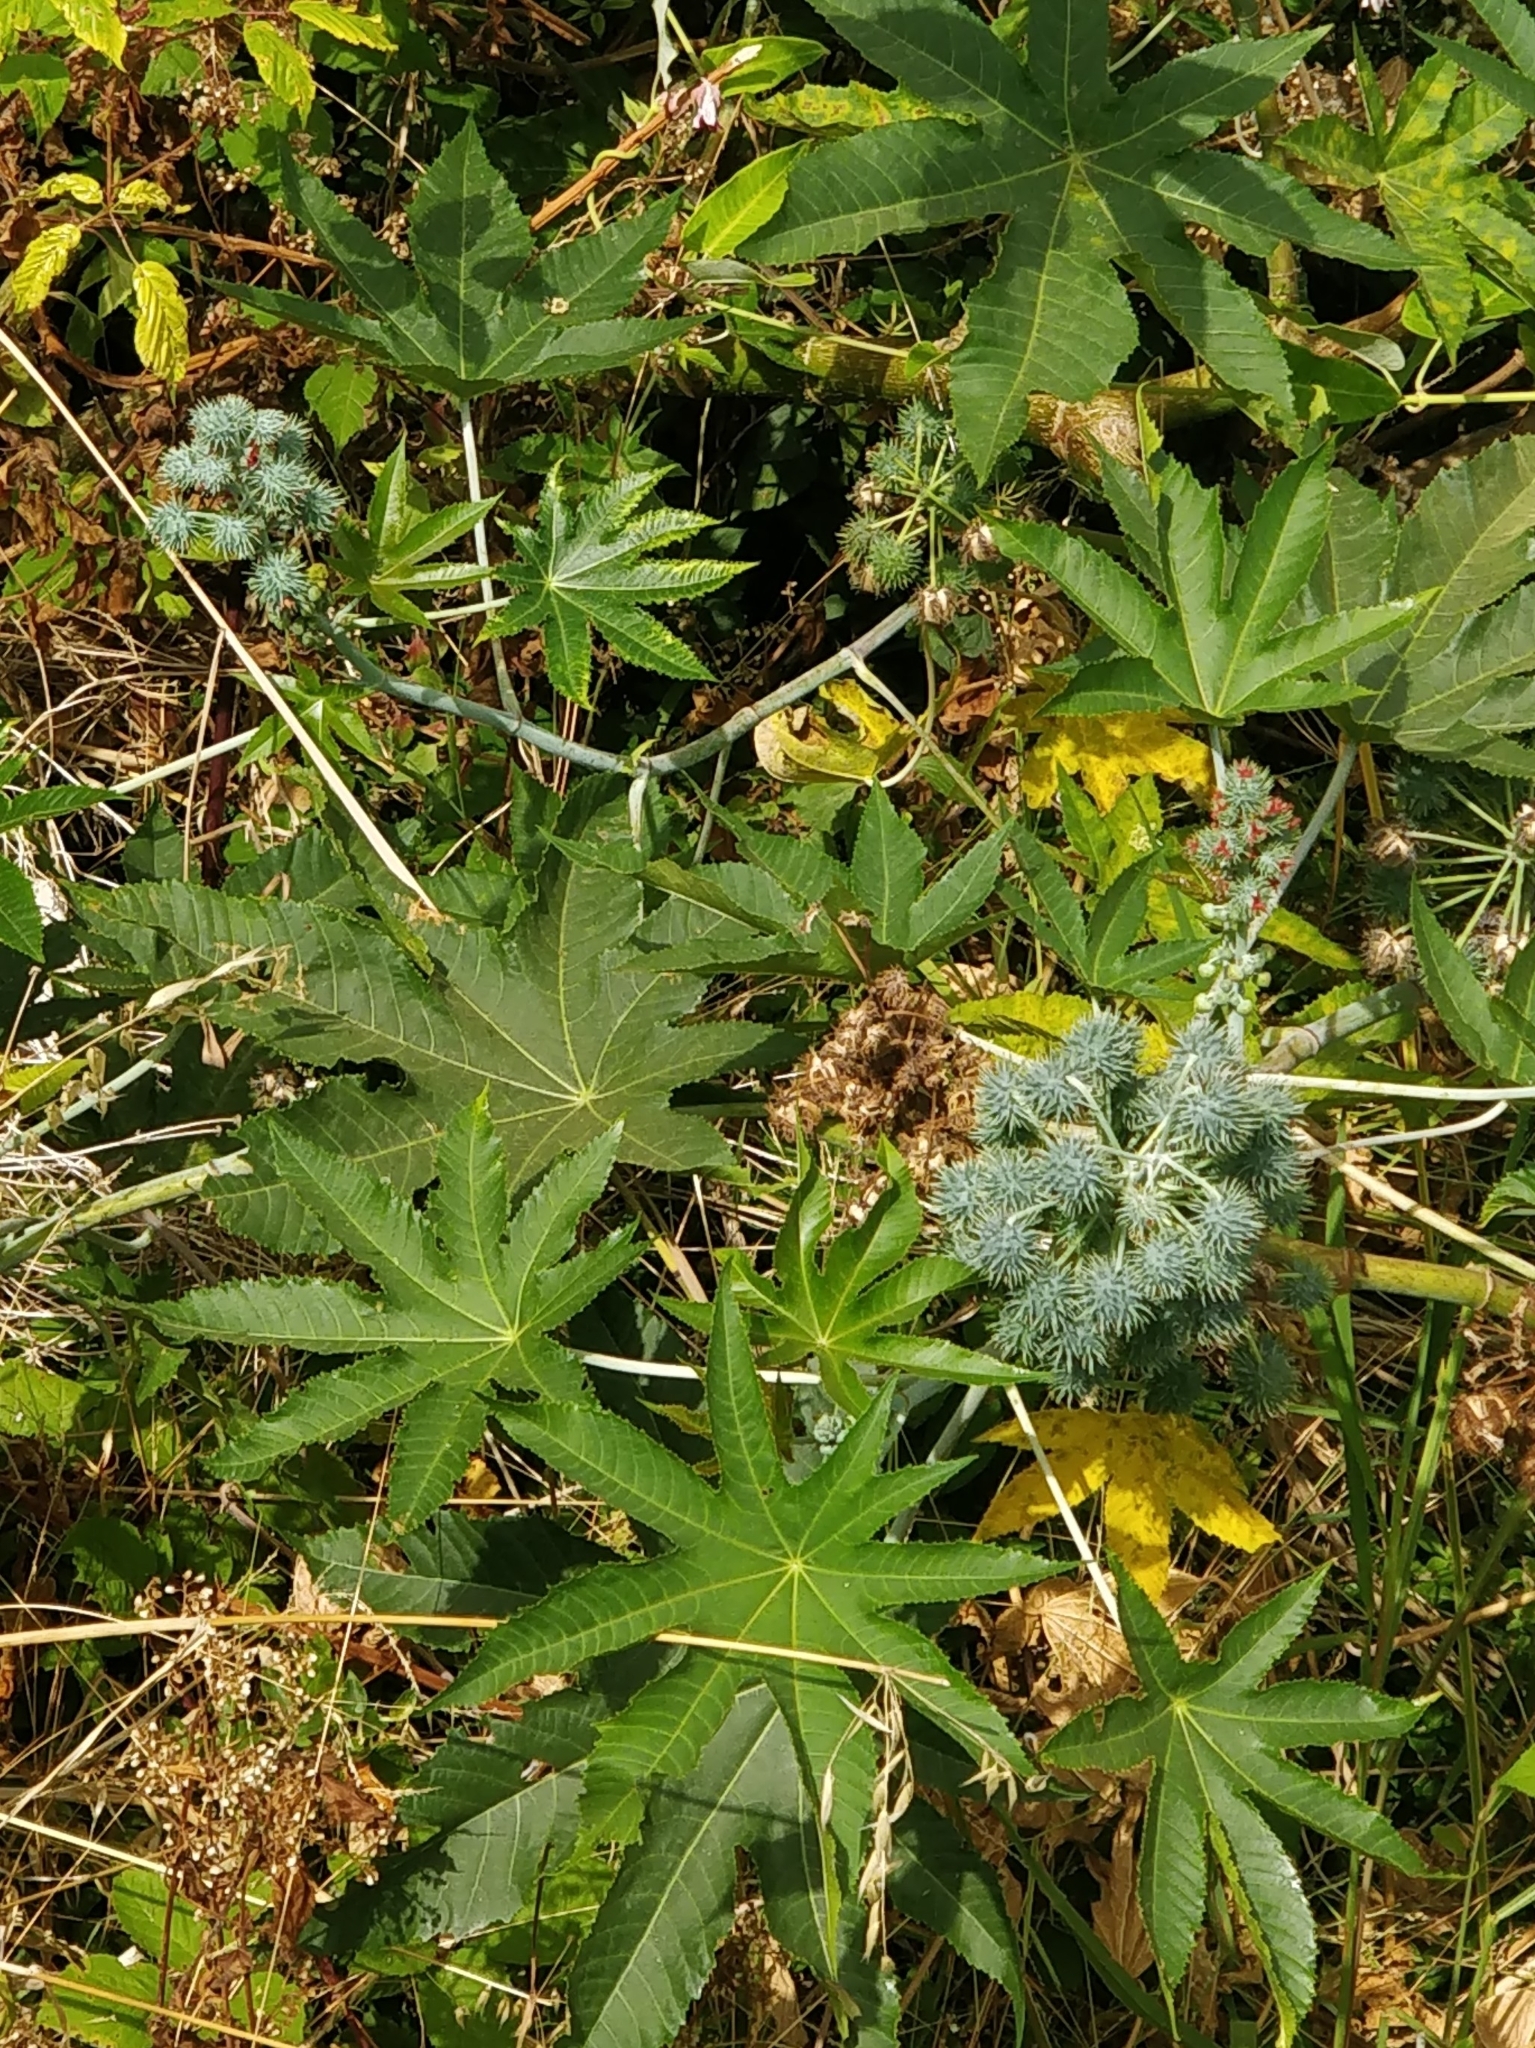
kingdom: Plantae
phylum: Tracheophyta
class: Magnoliopsida
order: Malpighiales
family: Euphorbiaceae
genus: Ricinus
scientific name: Ricinus communis
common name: Castor-oil-plant
